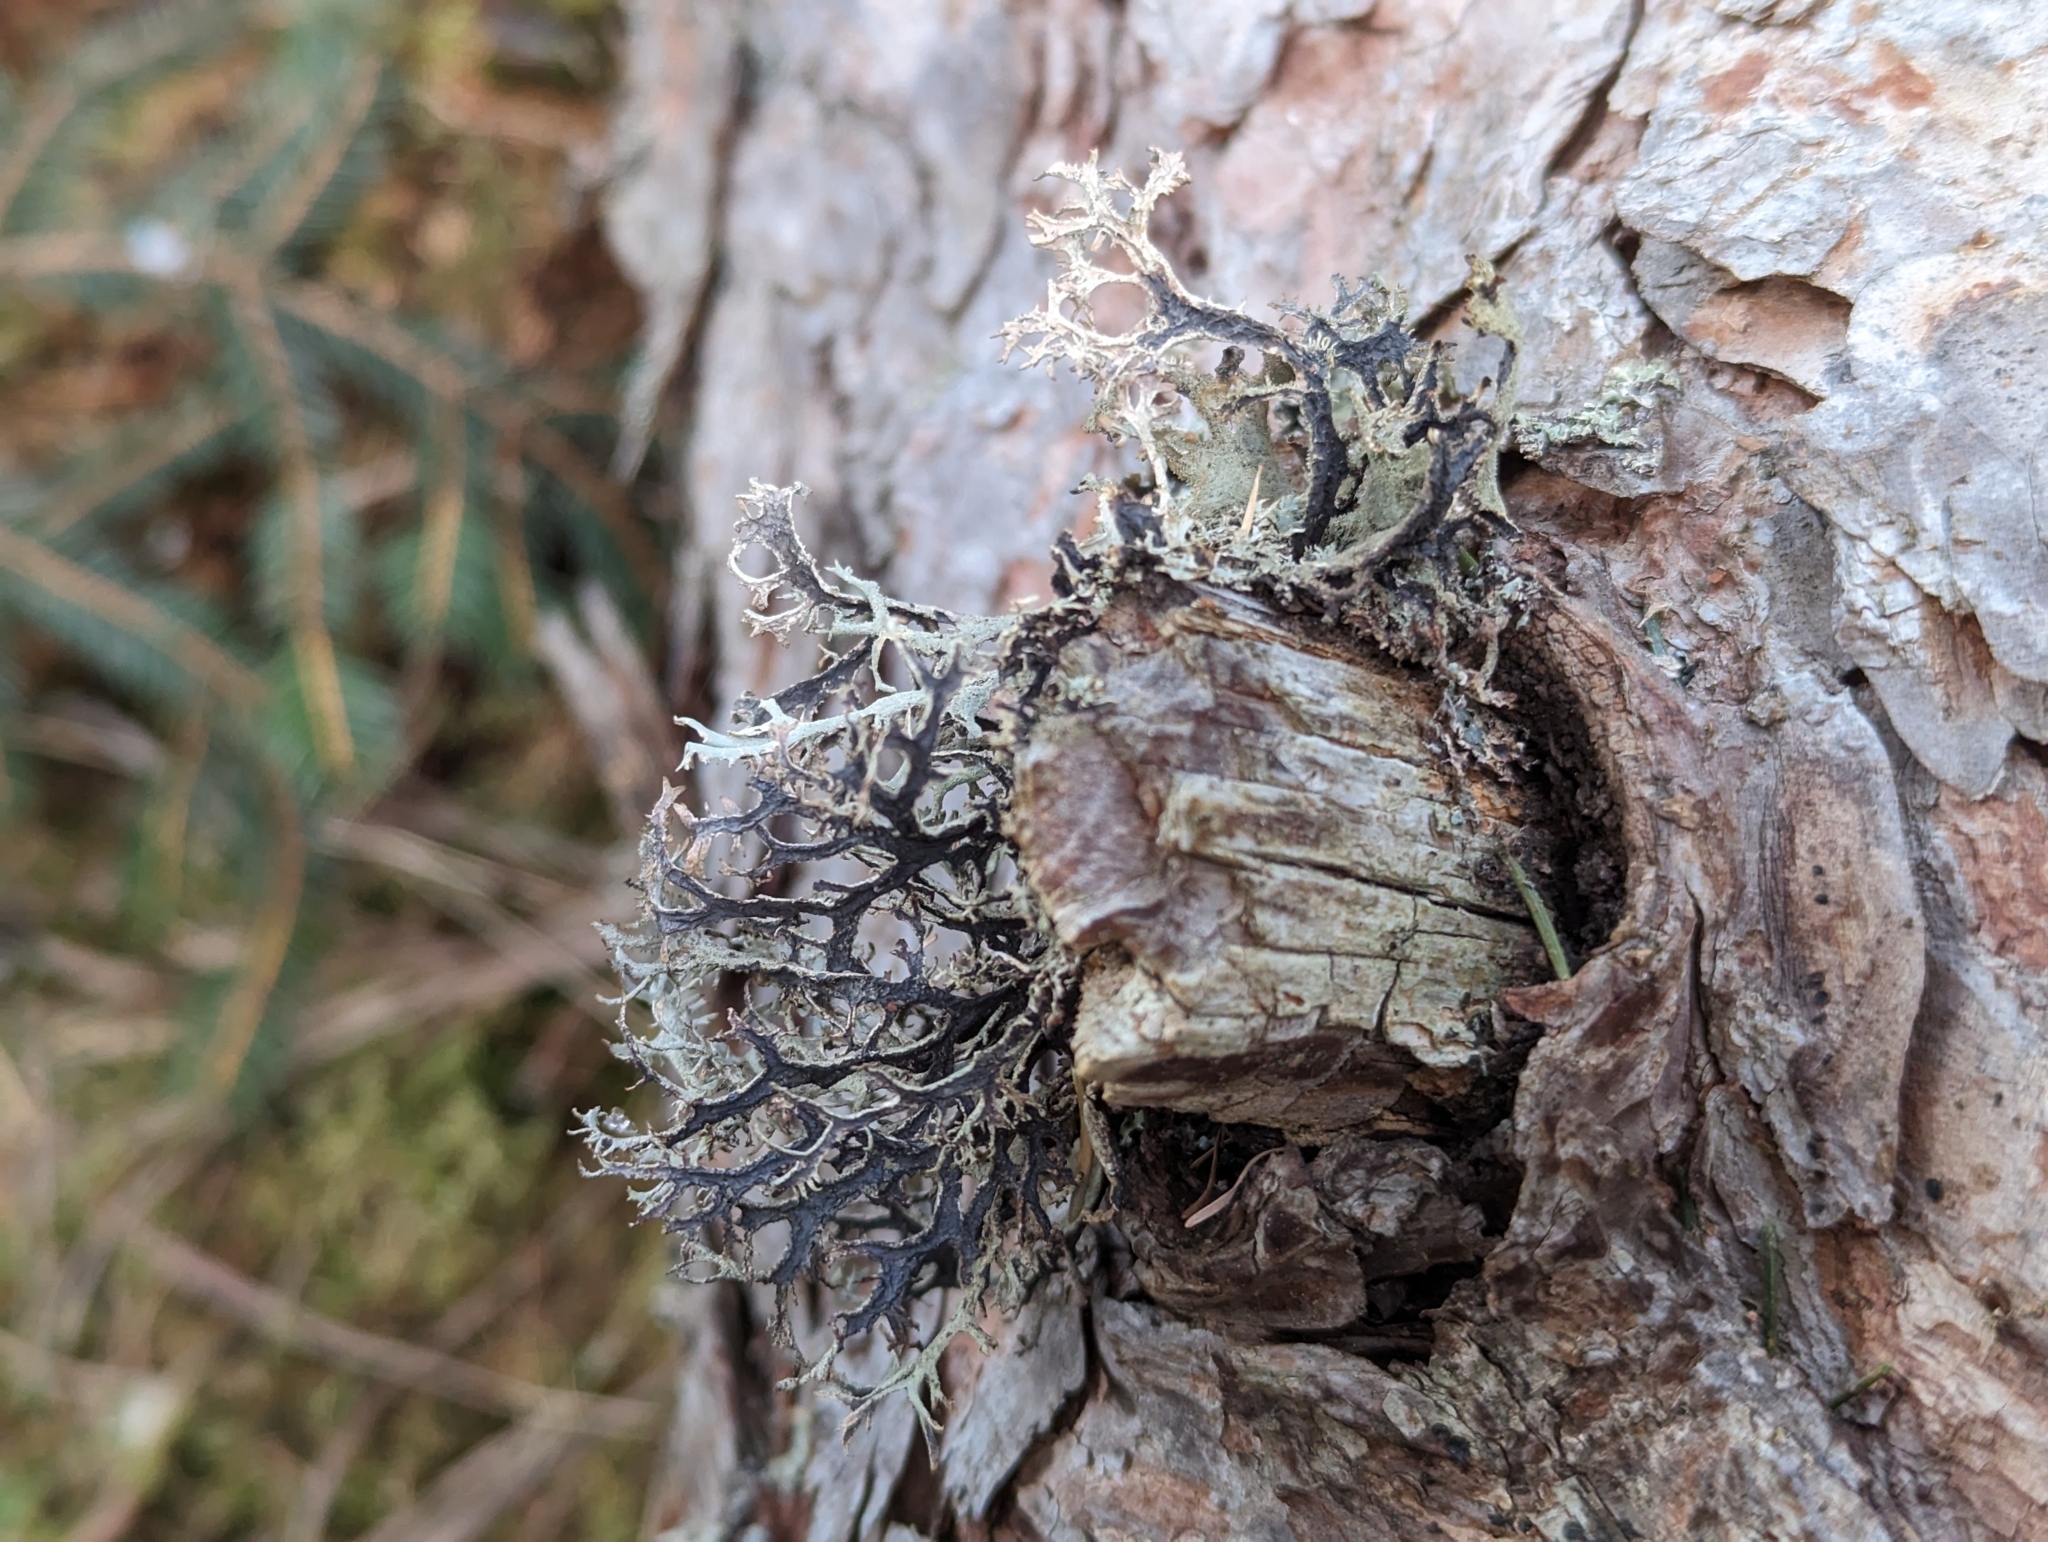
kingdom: Fungi
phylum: Ascomycota
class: Lecanoromycetes
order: Lecanorales
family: Parmeliaceae
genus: Pseudevernia
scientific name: Pseudevernia furfuracea
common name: Tree moss
